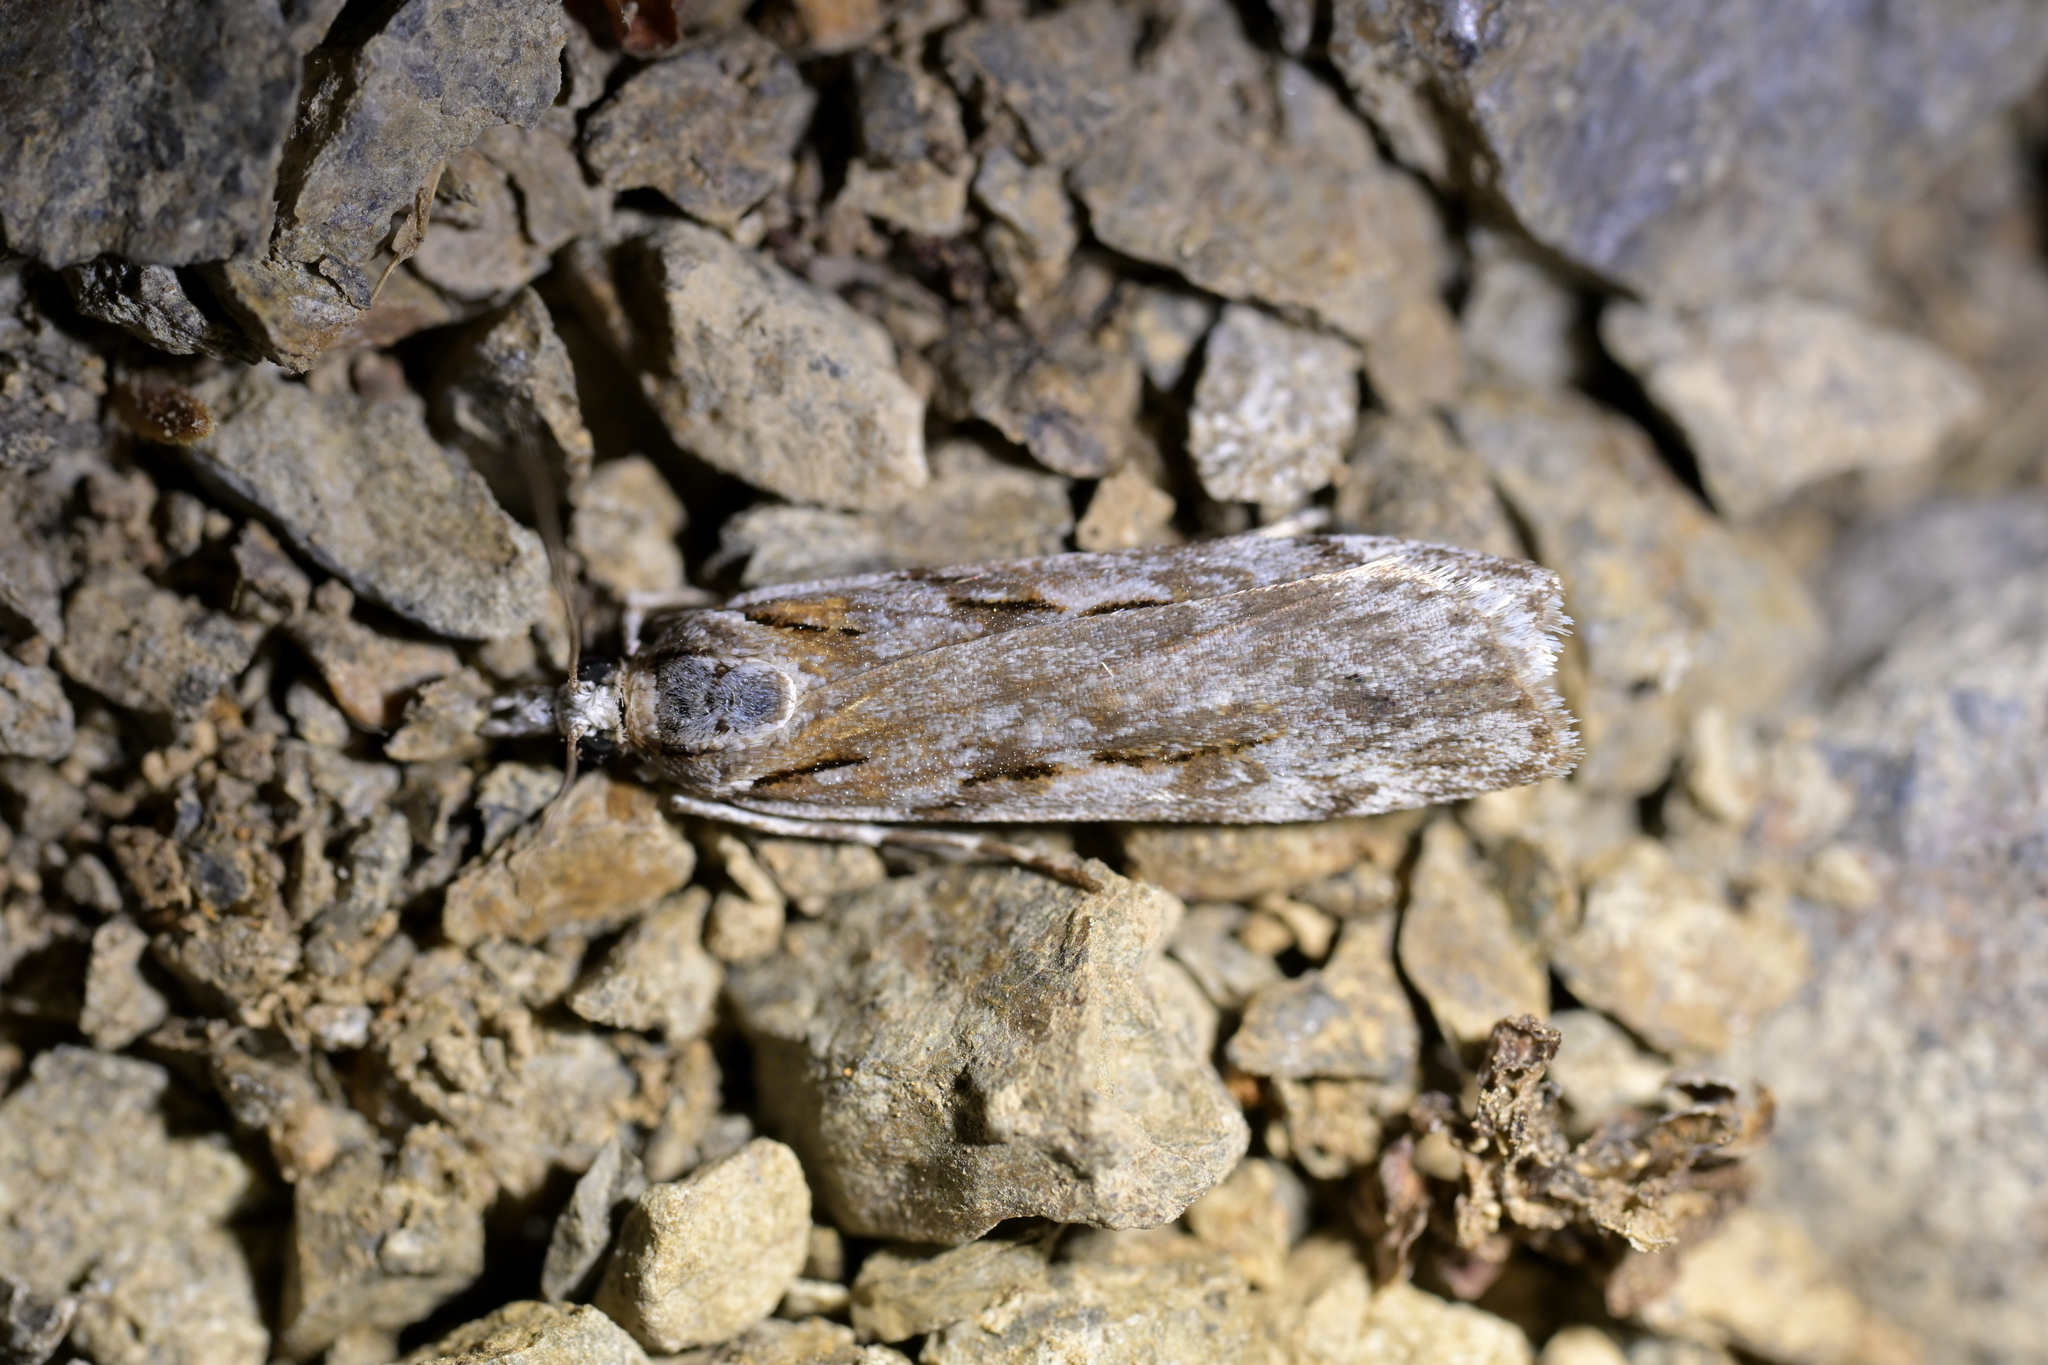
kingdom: Animalia
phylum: Arthropoda
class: Insecta
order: Lepidoptera
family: Crambidae
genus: Scoparia
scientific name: Scoparia halopis
